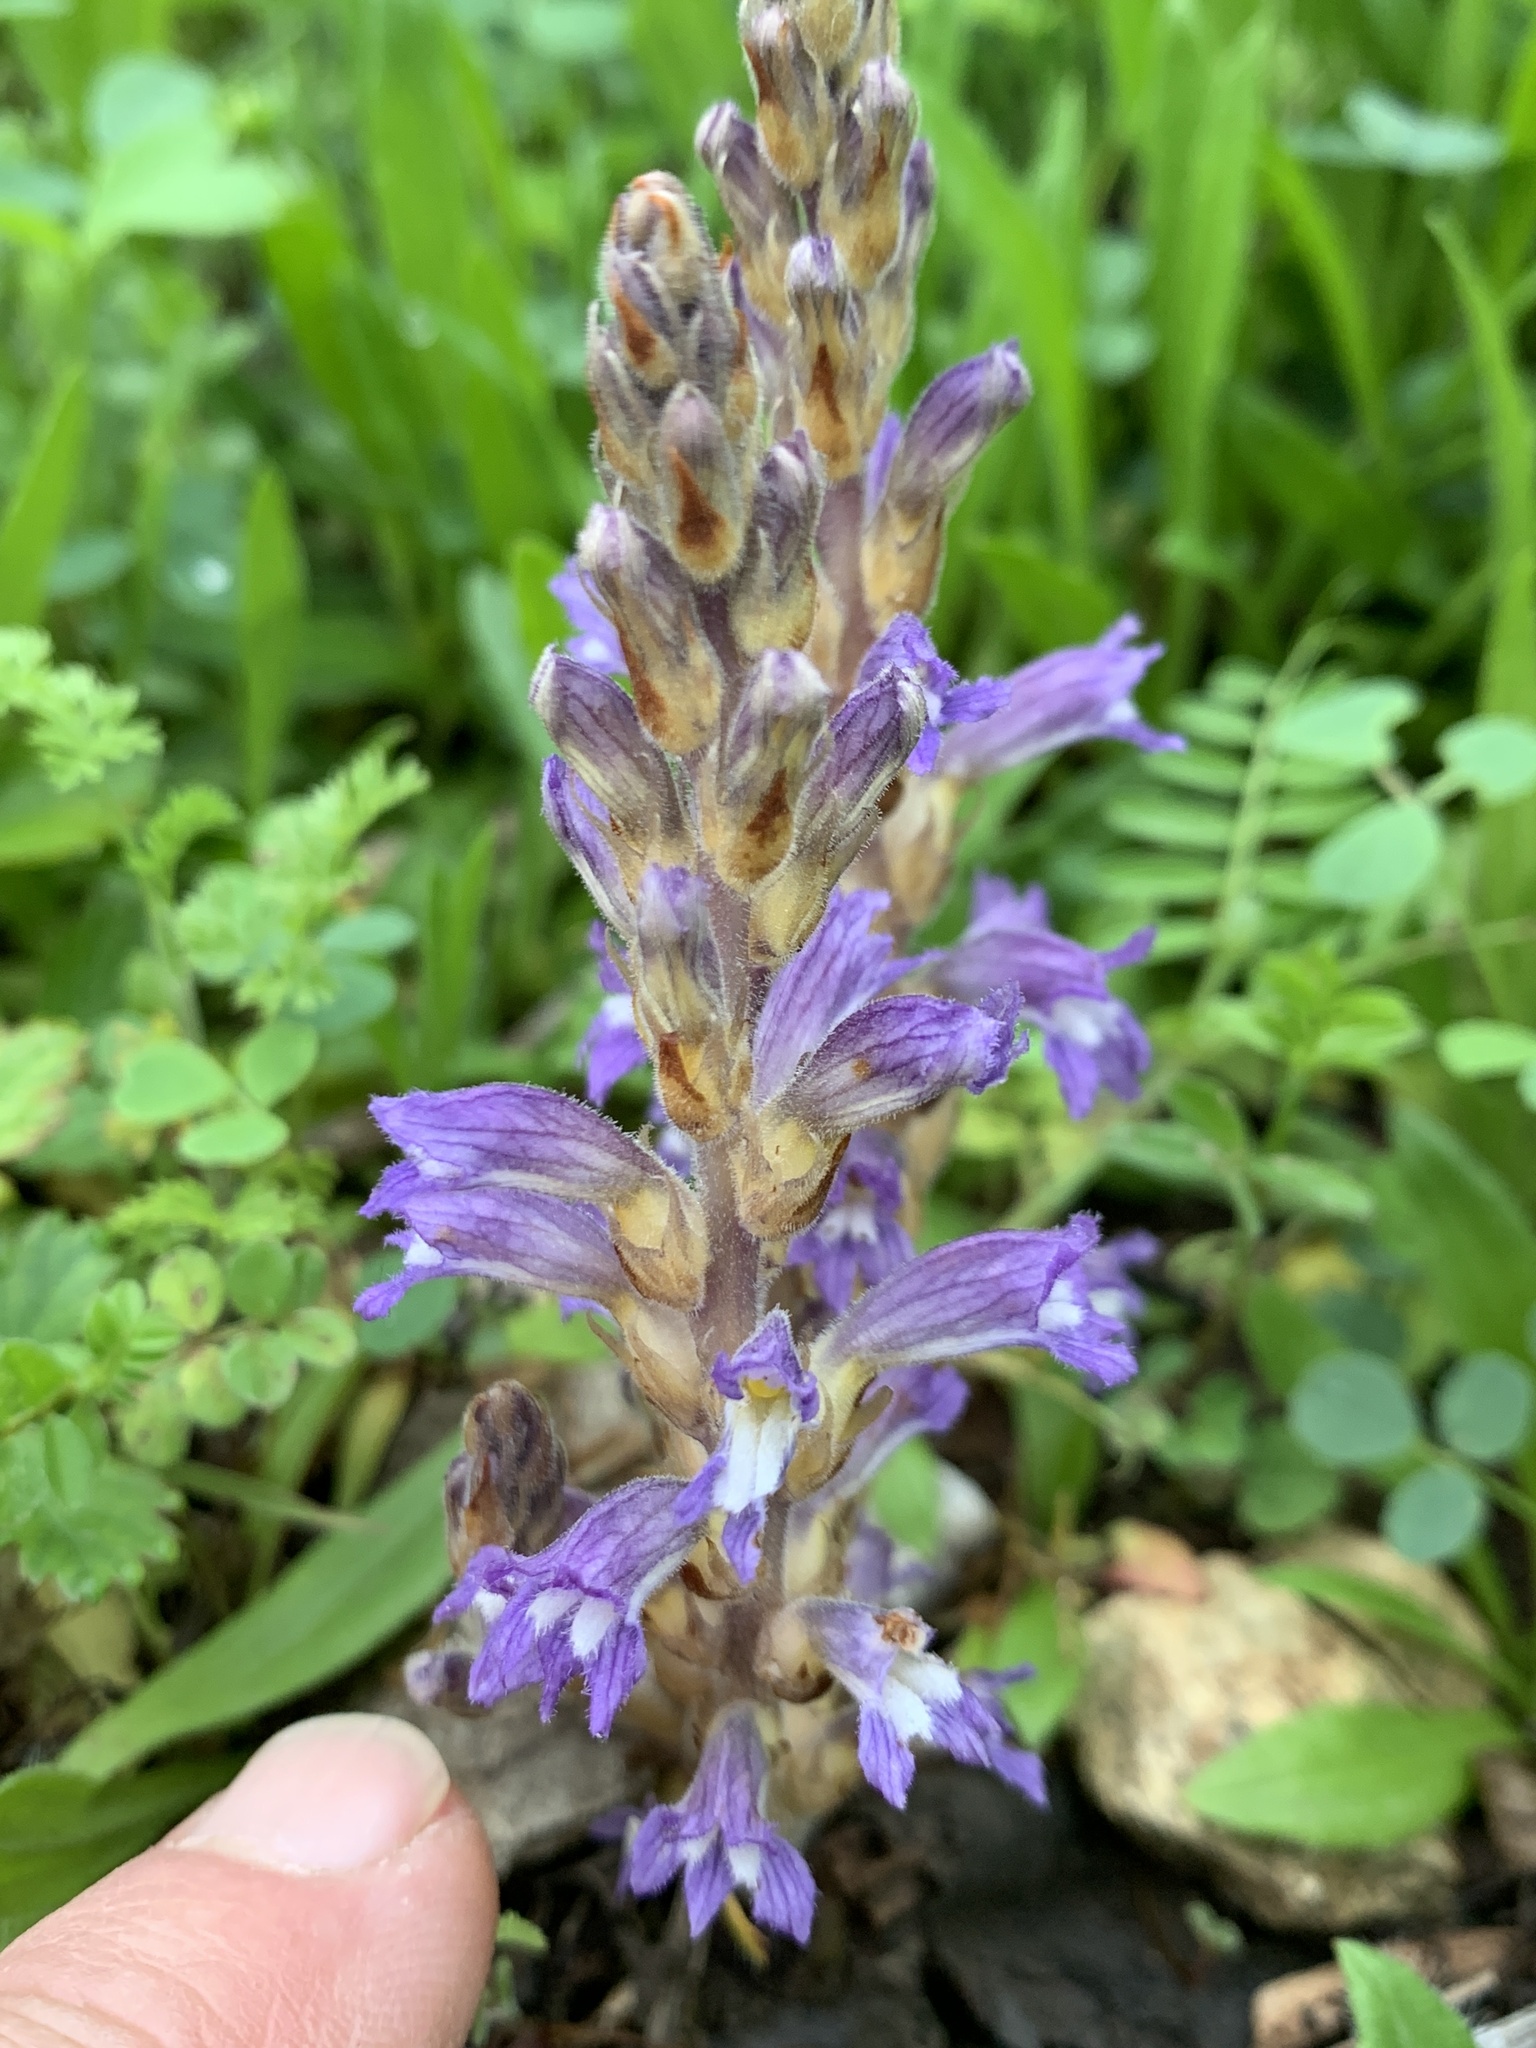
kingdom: Plantae
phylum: Tracheophyta
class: Magnoliopsida
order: Lamiales
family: Orobanchaceae
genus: Phelipanche
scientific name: Phelipanche ramosa
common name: Branched broomrape
